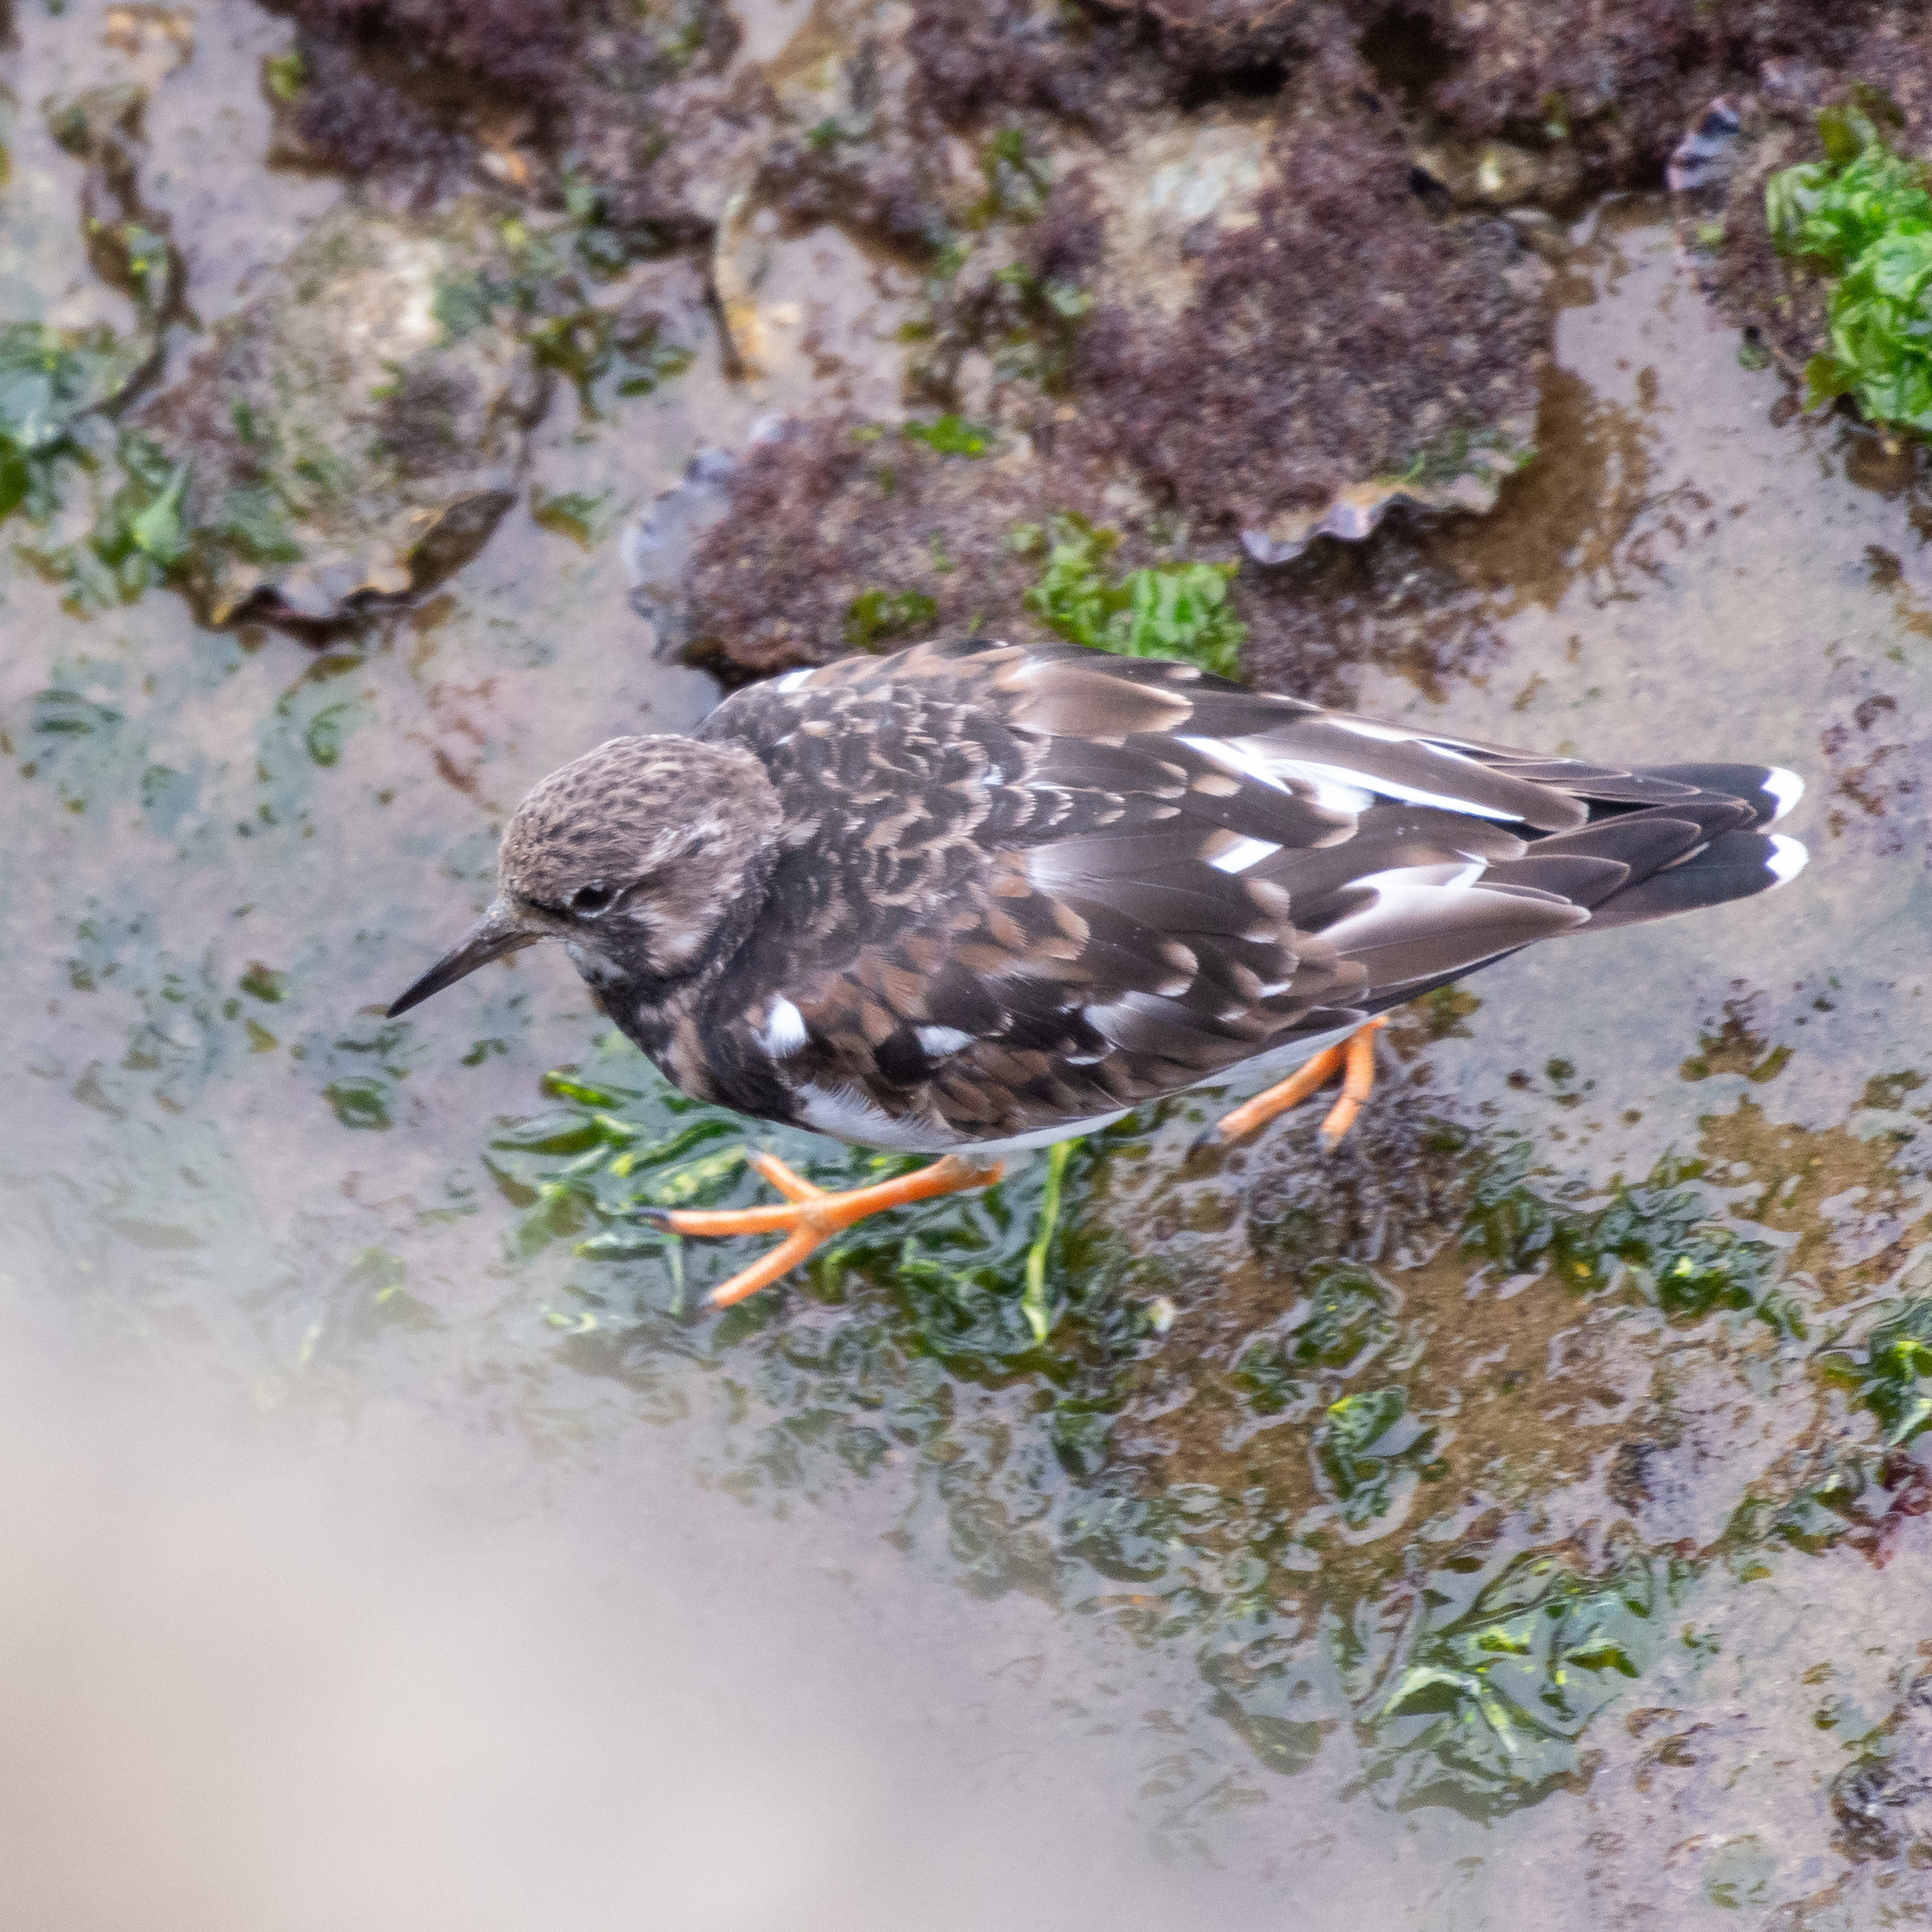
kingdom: Animalia
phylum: Chordata
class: Aves
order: Charadriiformes
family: Scolopacidae
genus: Arenaria
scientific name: Arenaria interpres
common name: Ruddy turnstone
